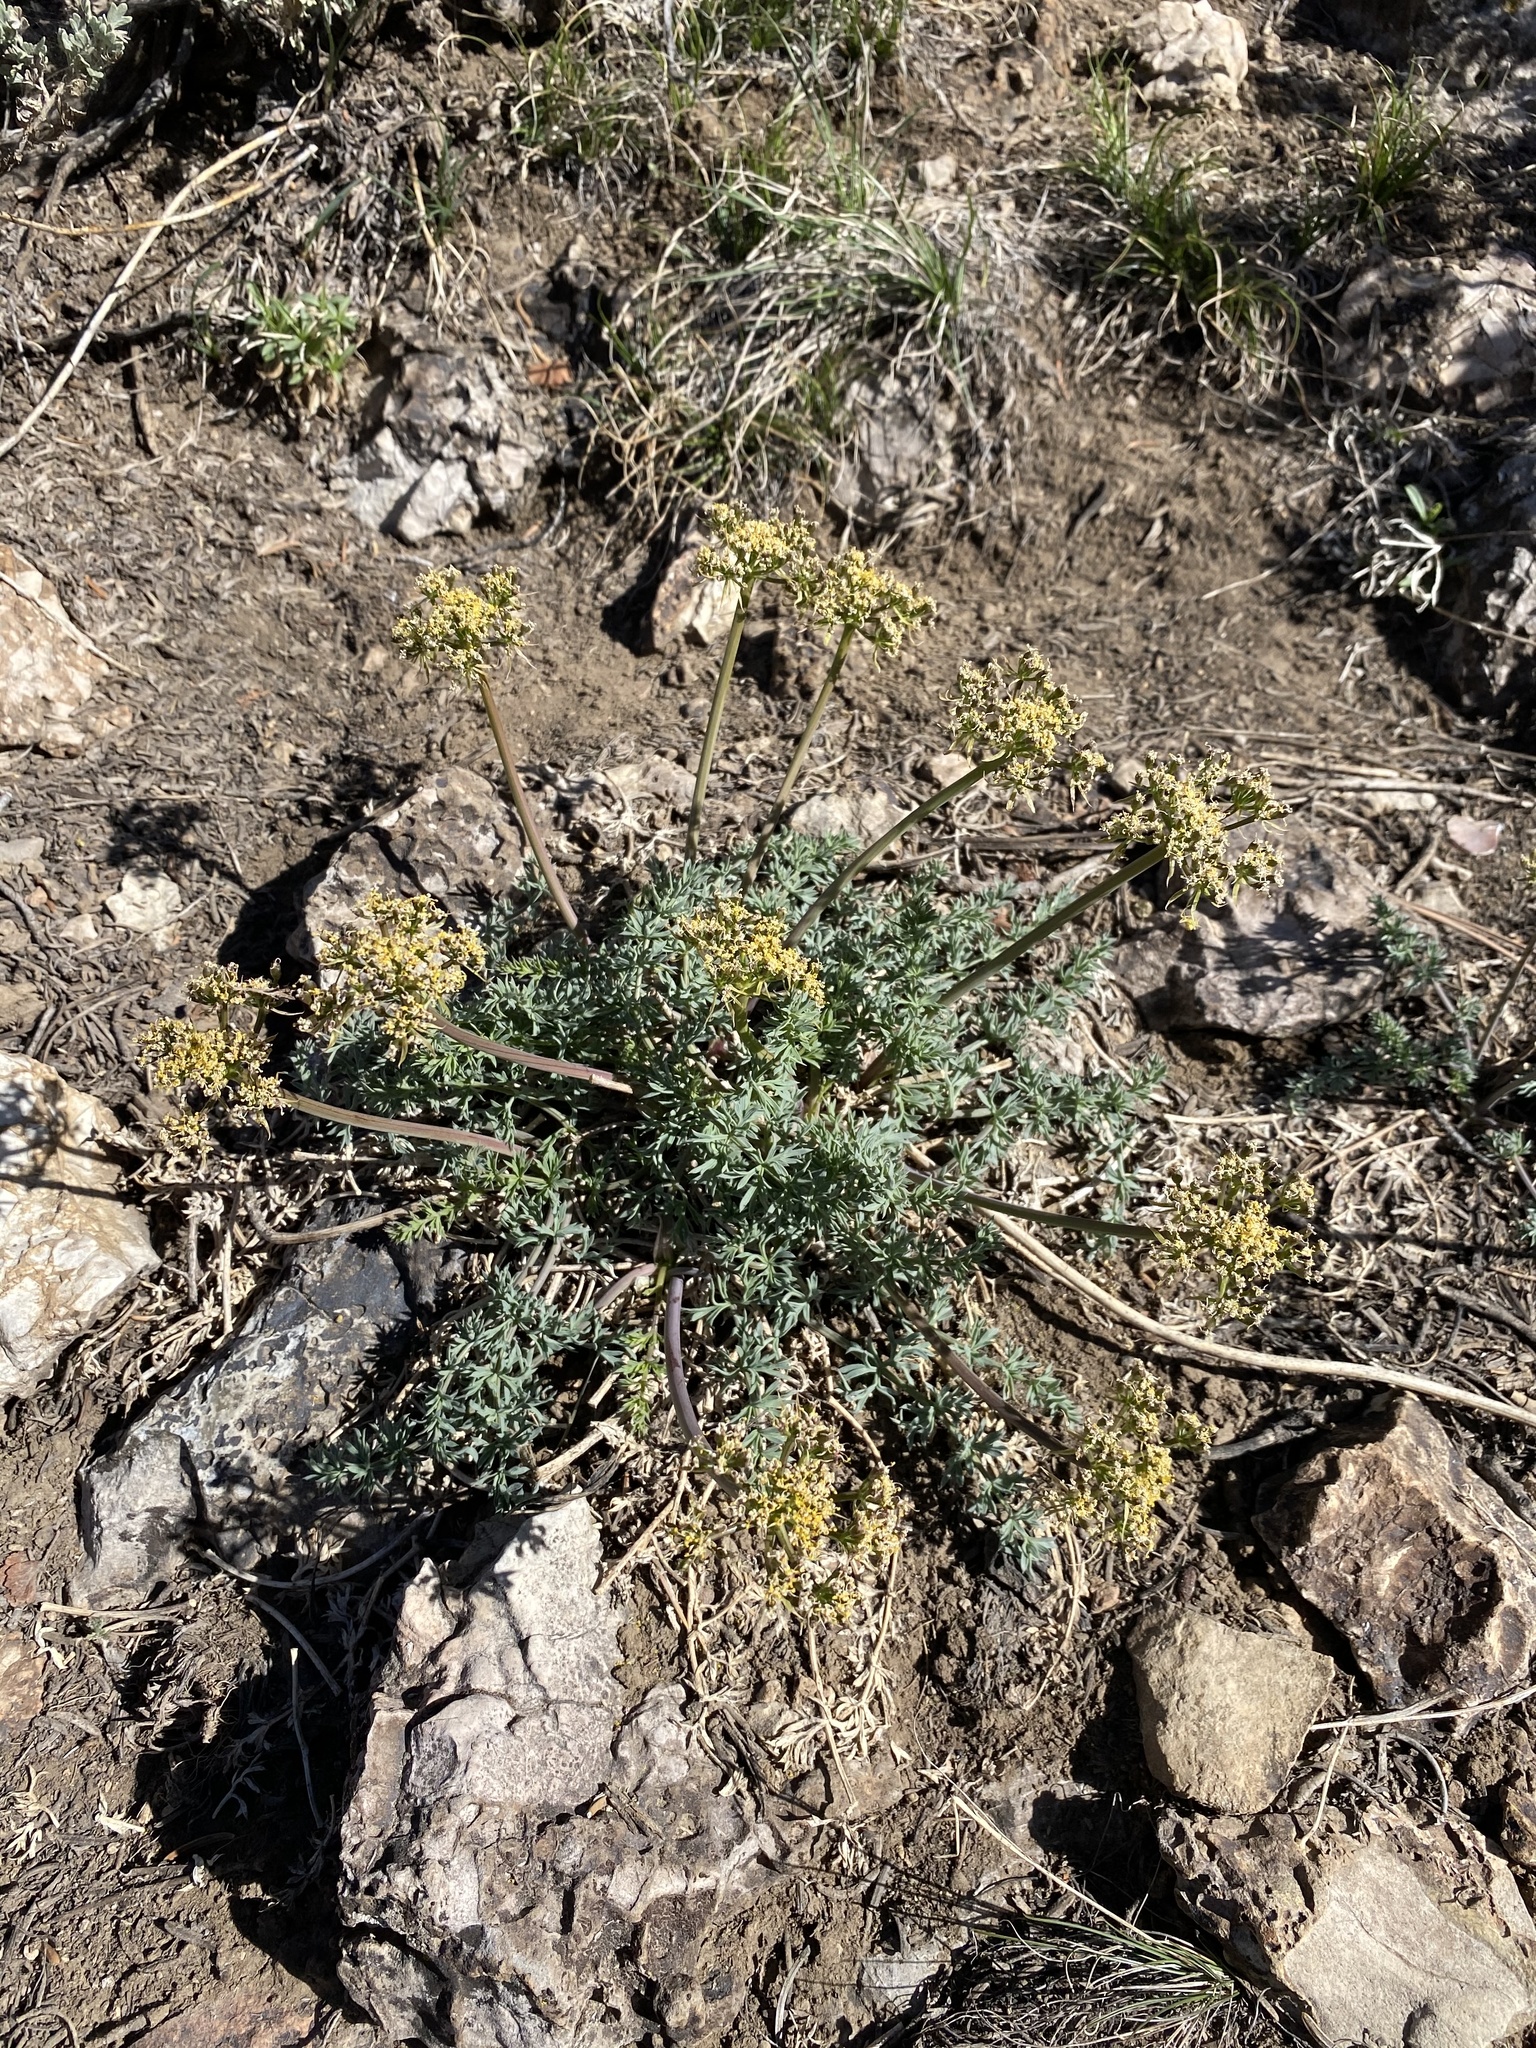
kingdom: Plantae
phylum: Tracheophyta
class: Magnoliopsida
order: Apiales
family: Apiaceae
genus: Lomatium
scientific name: Lomatium parryi
